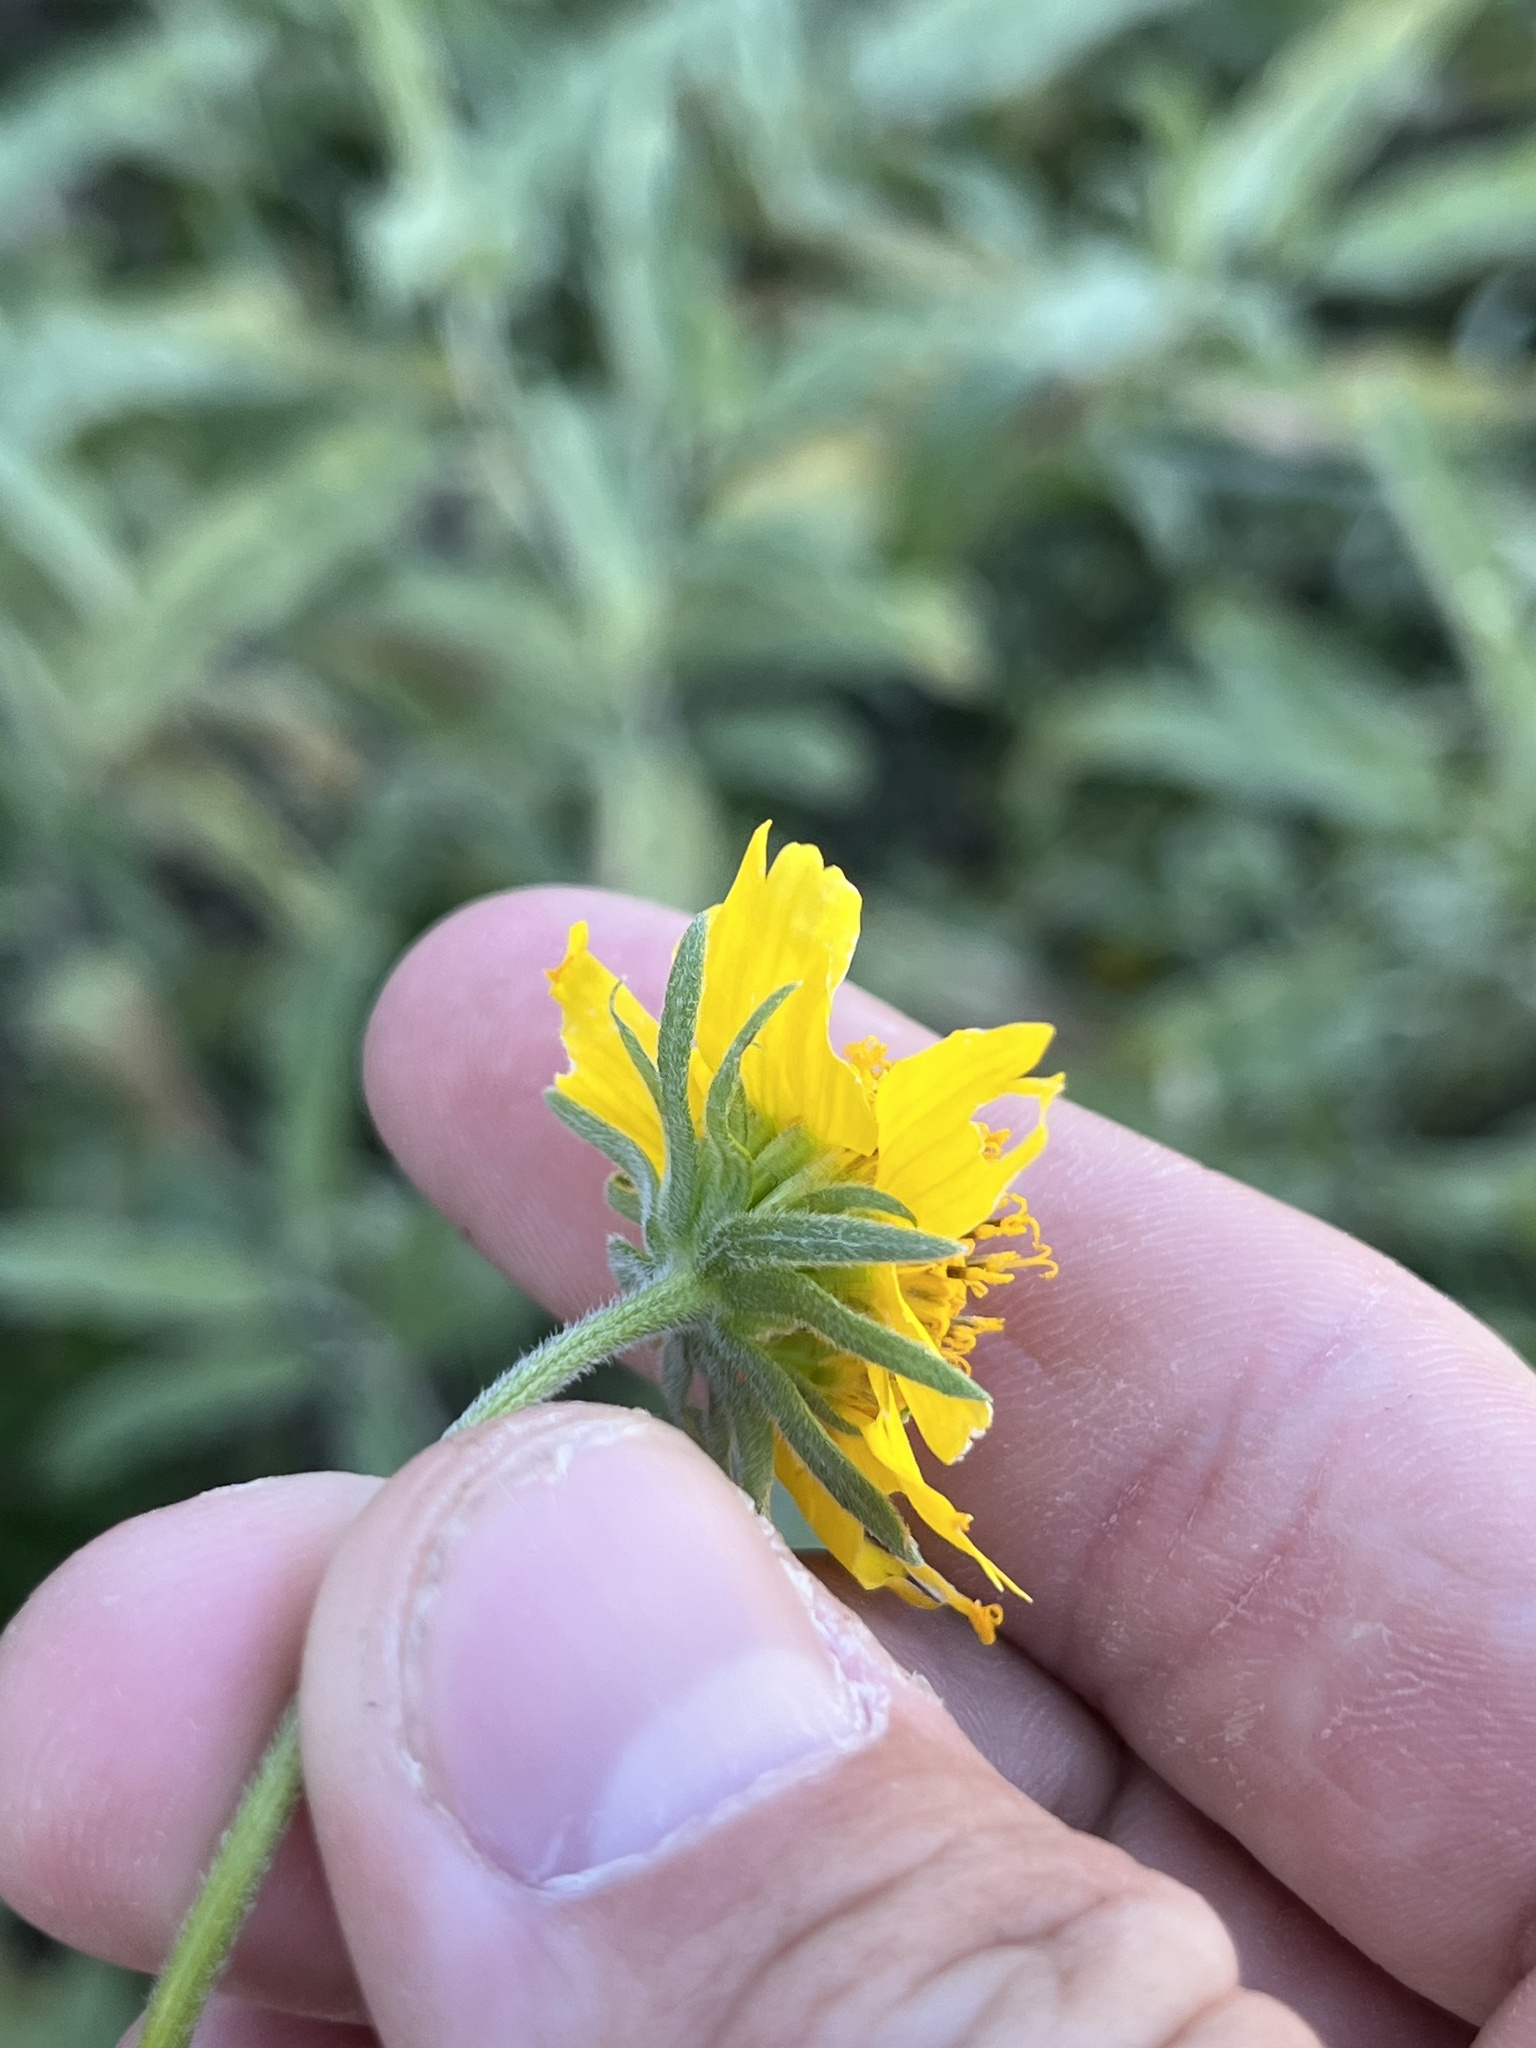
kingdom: Plantae
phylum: Tracheophyta
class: Magnoliopsida
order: Asterales
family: Asteraceae
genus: Verbesina
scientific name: Verbesina encelioides
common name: Golden crownbeard
